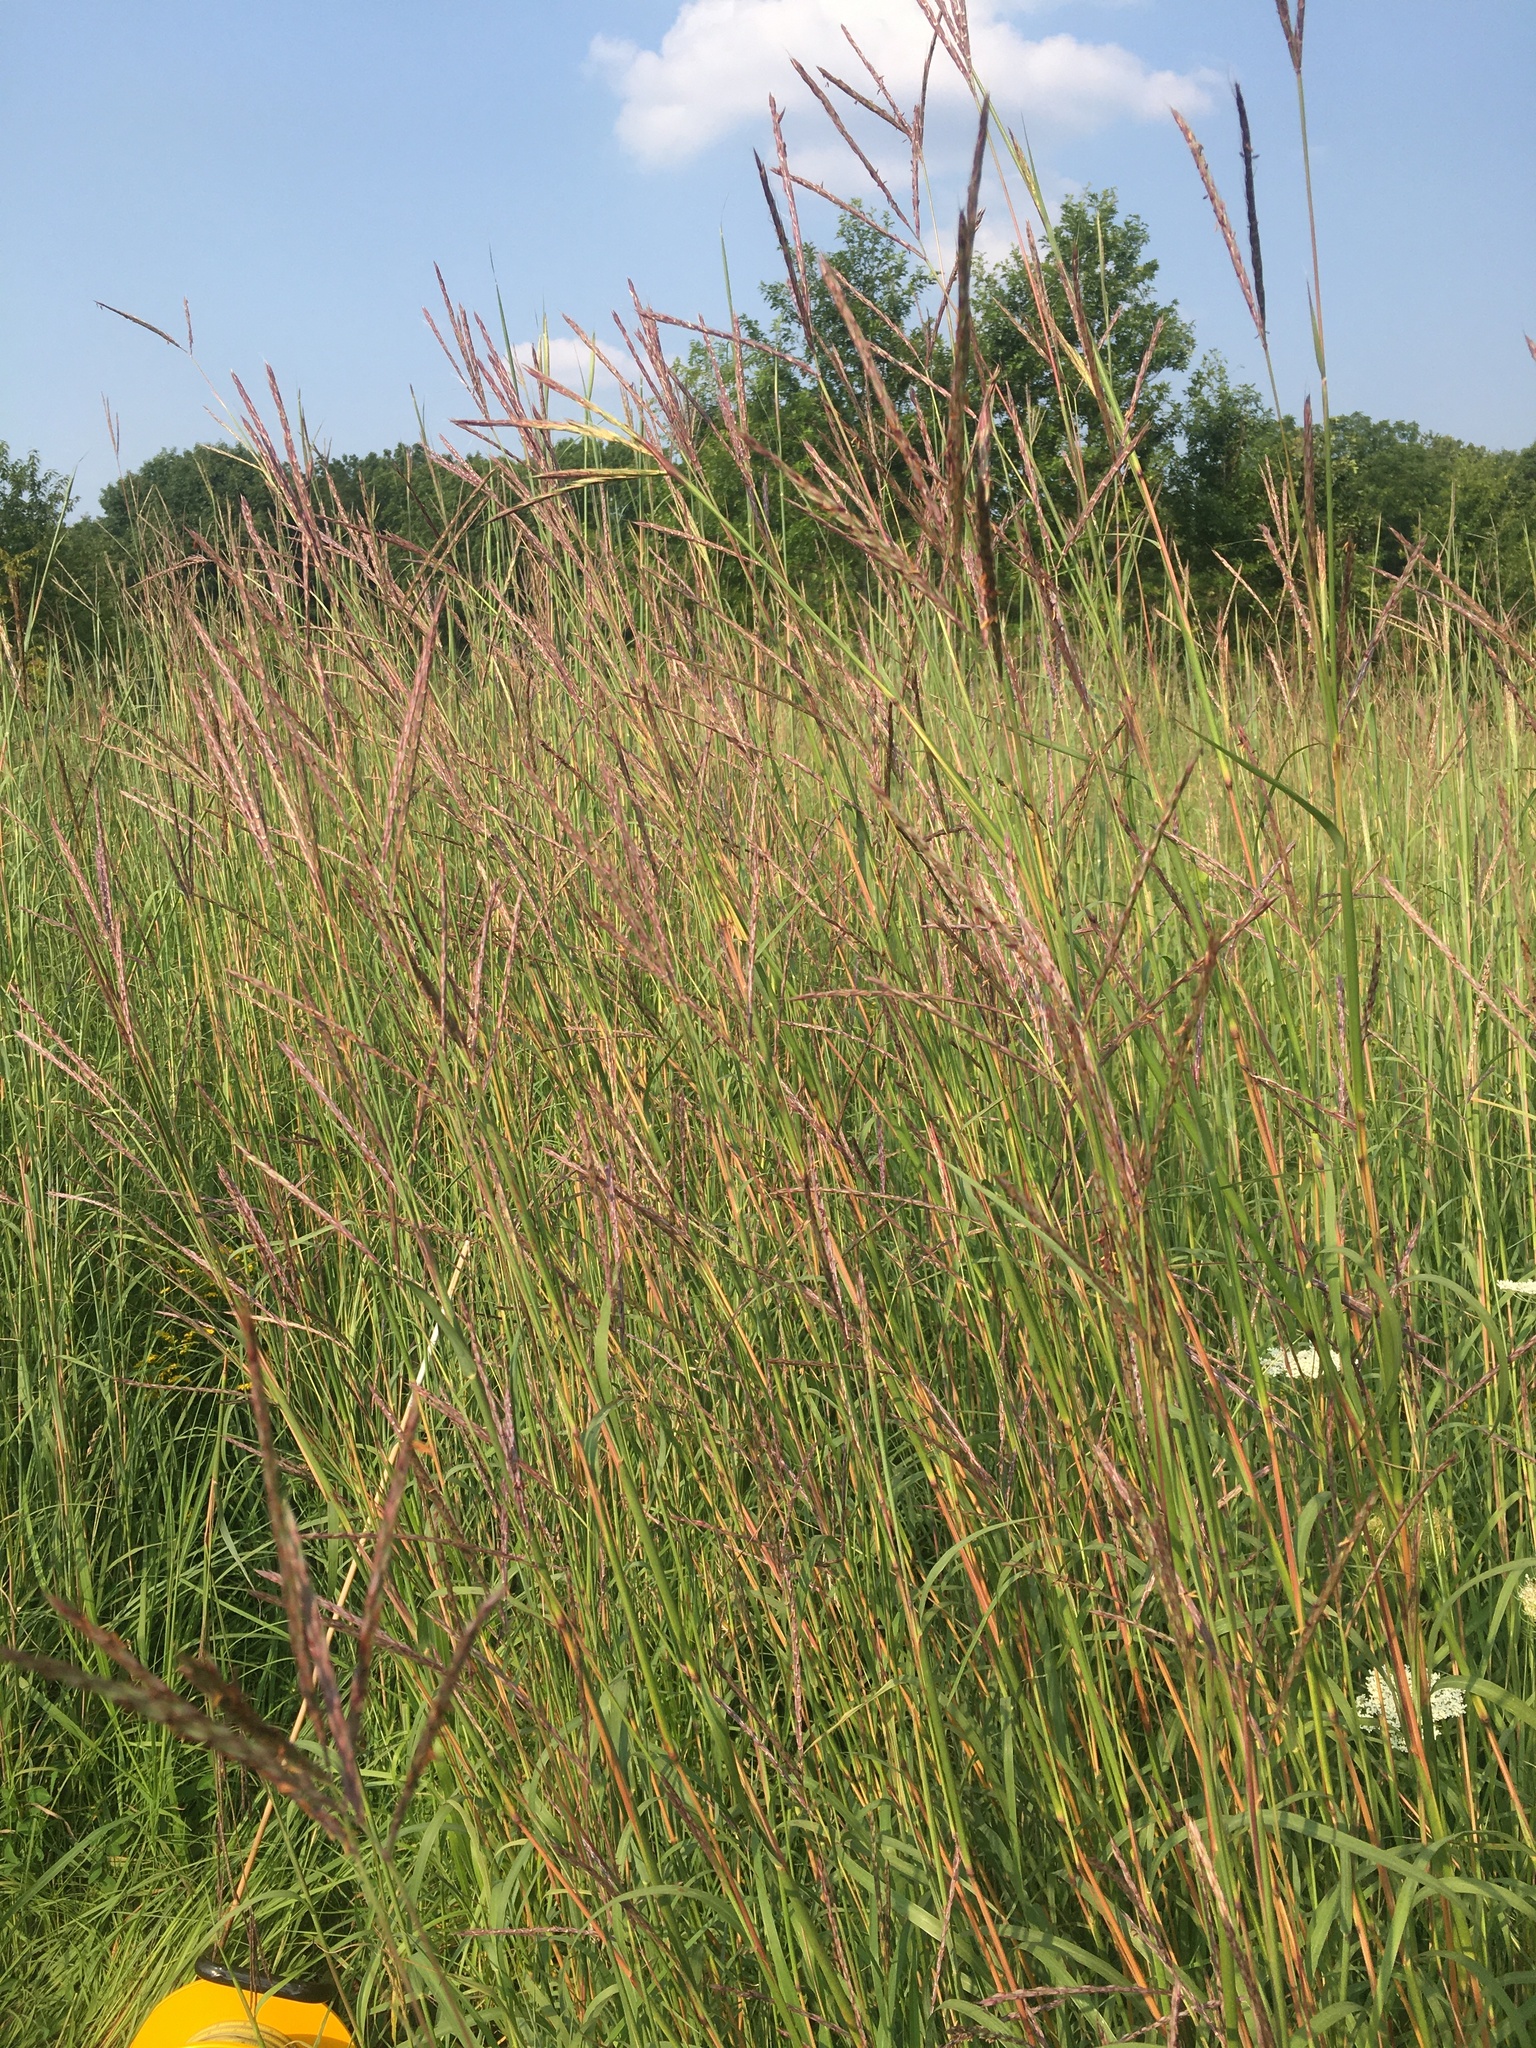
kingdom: Plantae
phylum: Tracheophyta
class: Liliopsida
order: Poales
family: Poaceae
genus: Andropogon
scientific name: Andropogon gerardi
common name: Big bluestem
